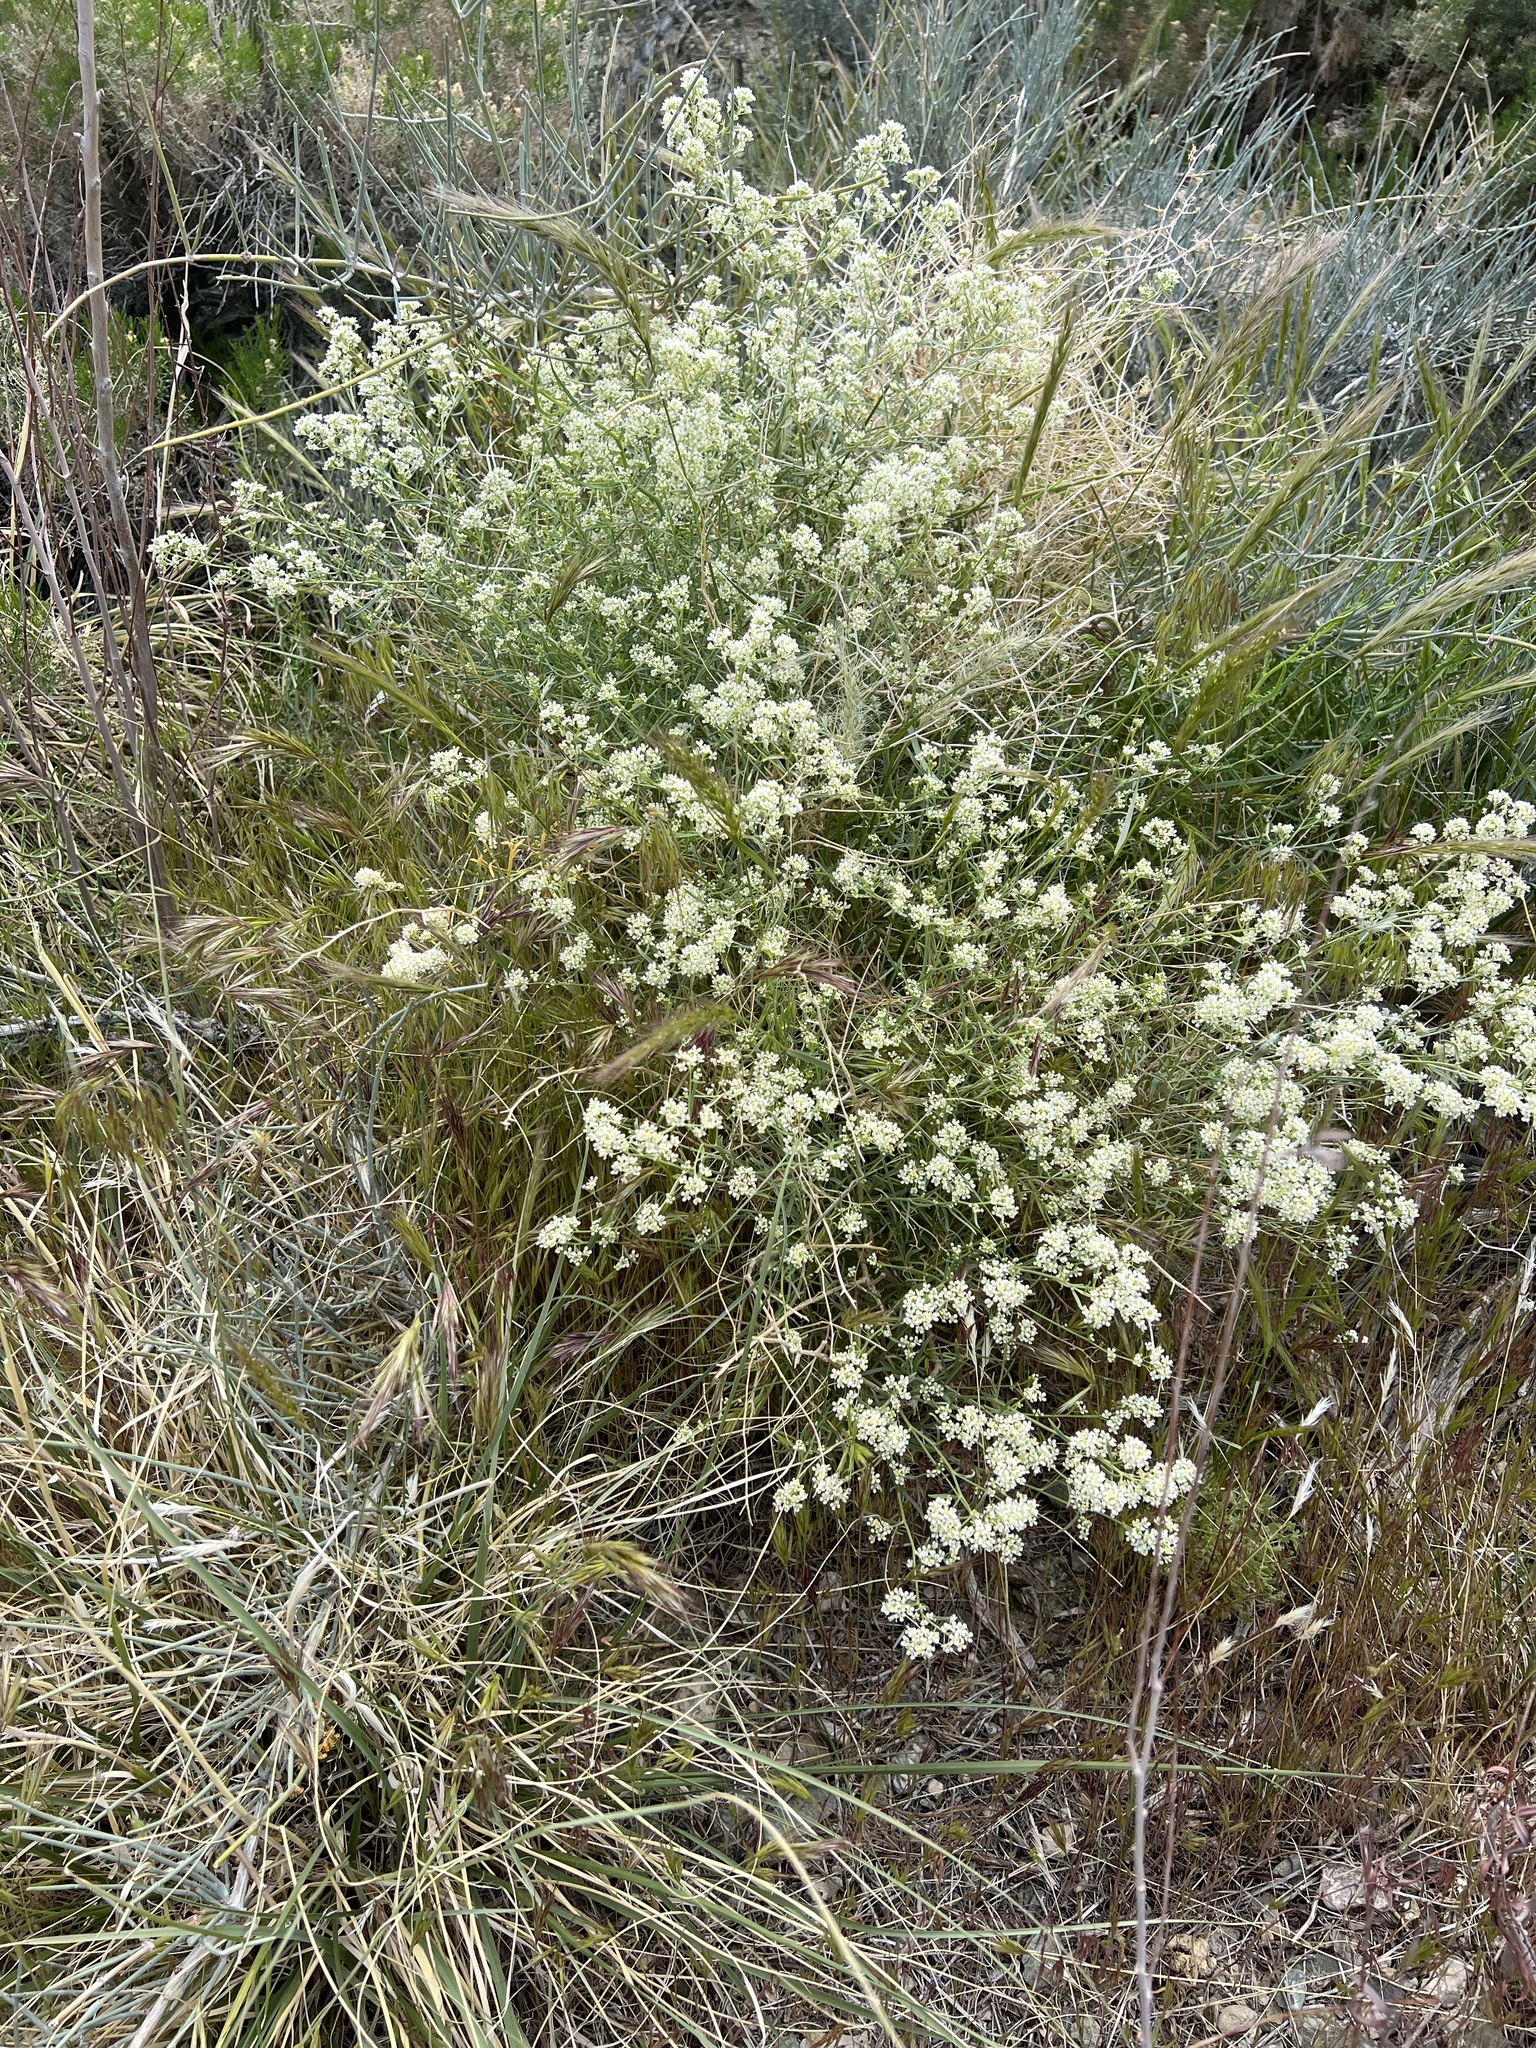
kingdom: Plantae
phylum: Tracheophyta
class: Magnoliopsida
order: Brassicales
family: Brassicaceae
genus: Lepidium
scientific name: Lepidium fremontii
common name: Fremont's pepperwort
